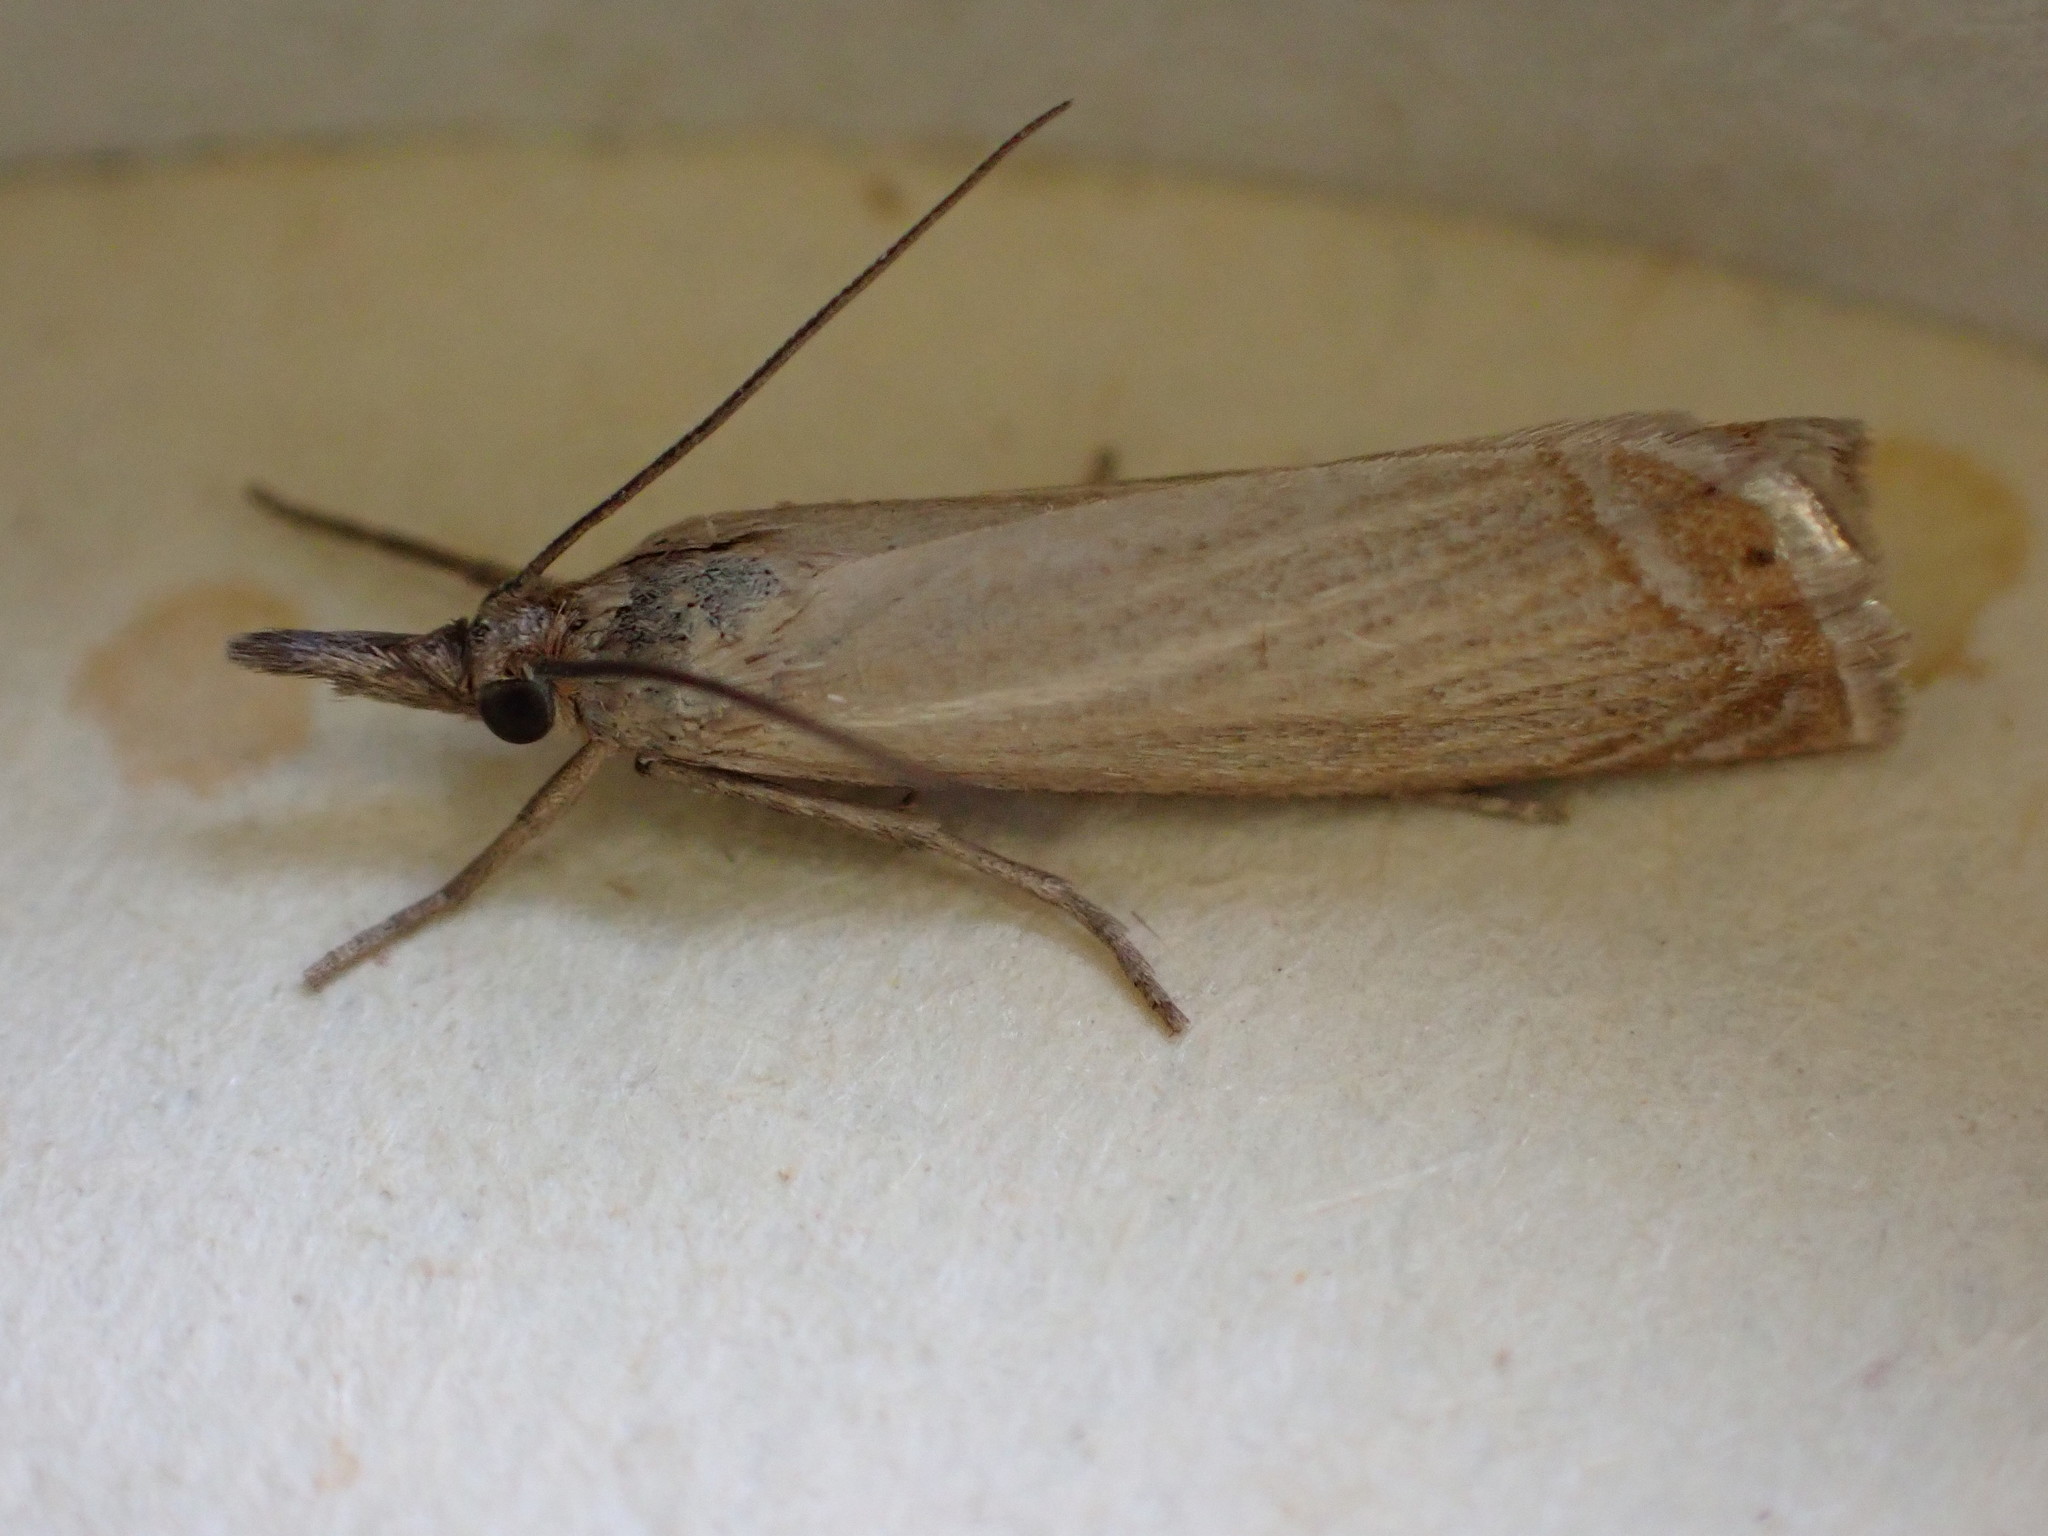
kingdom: Animalia
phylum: Arthropoda
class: Insecta
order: Lepidoptera
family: Crambidae
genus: Chrysoteuchia
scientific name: Chrysoteuchia culmella
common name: Garden grass-veneer
